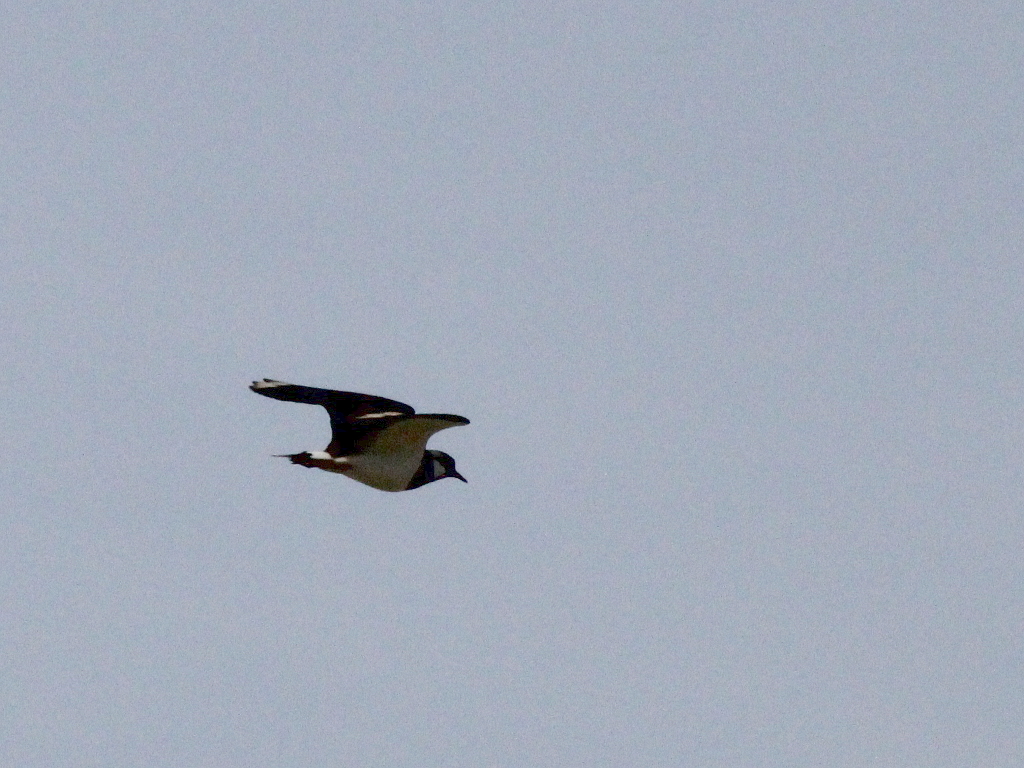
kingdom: Animalia
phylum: Chordata
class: Aves
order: Charadriiformes
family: Charadriidae
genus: Vanellus
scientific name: Vanellus vanellus
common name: Northern lapwing
